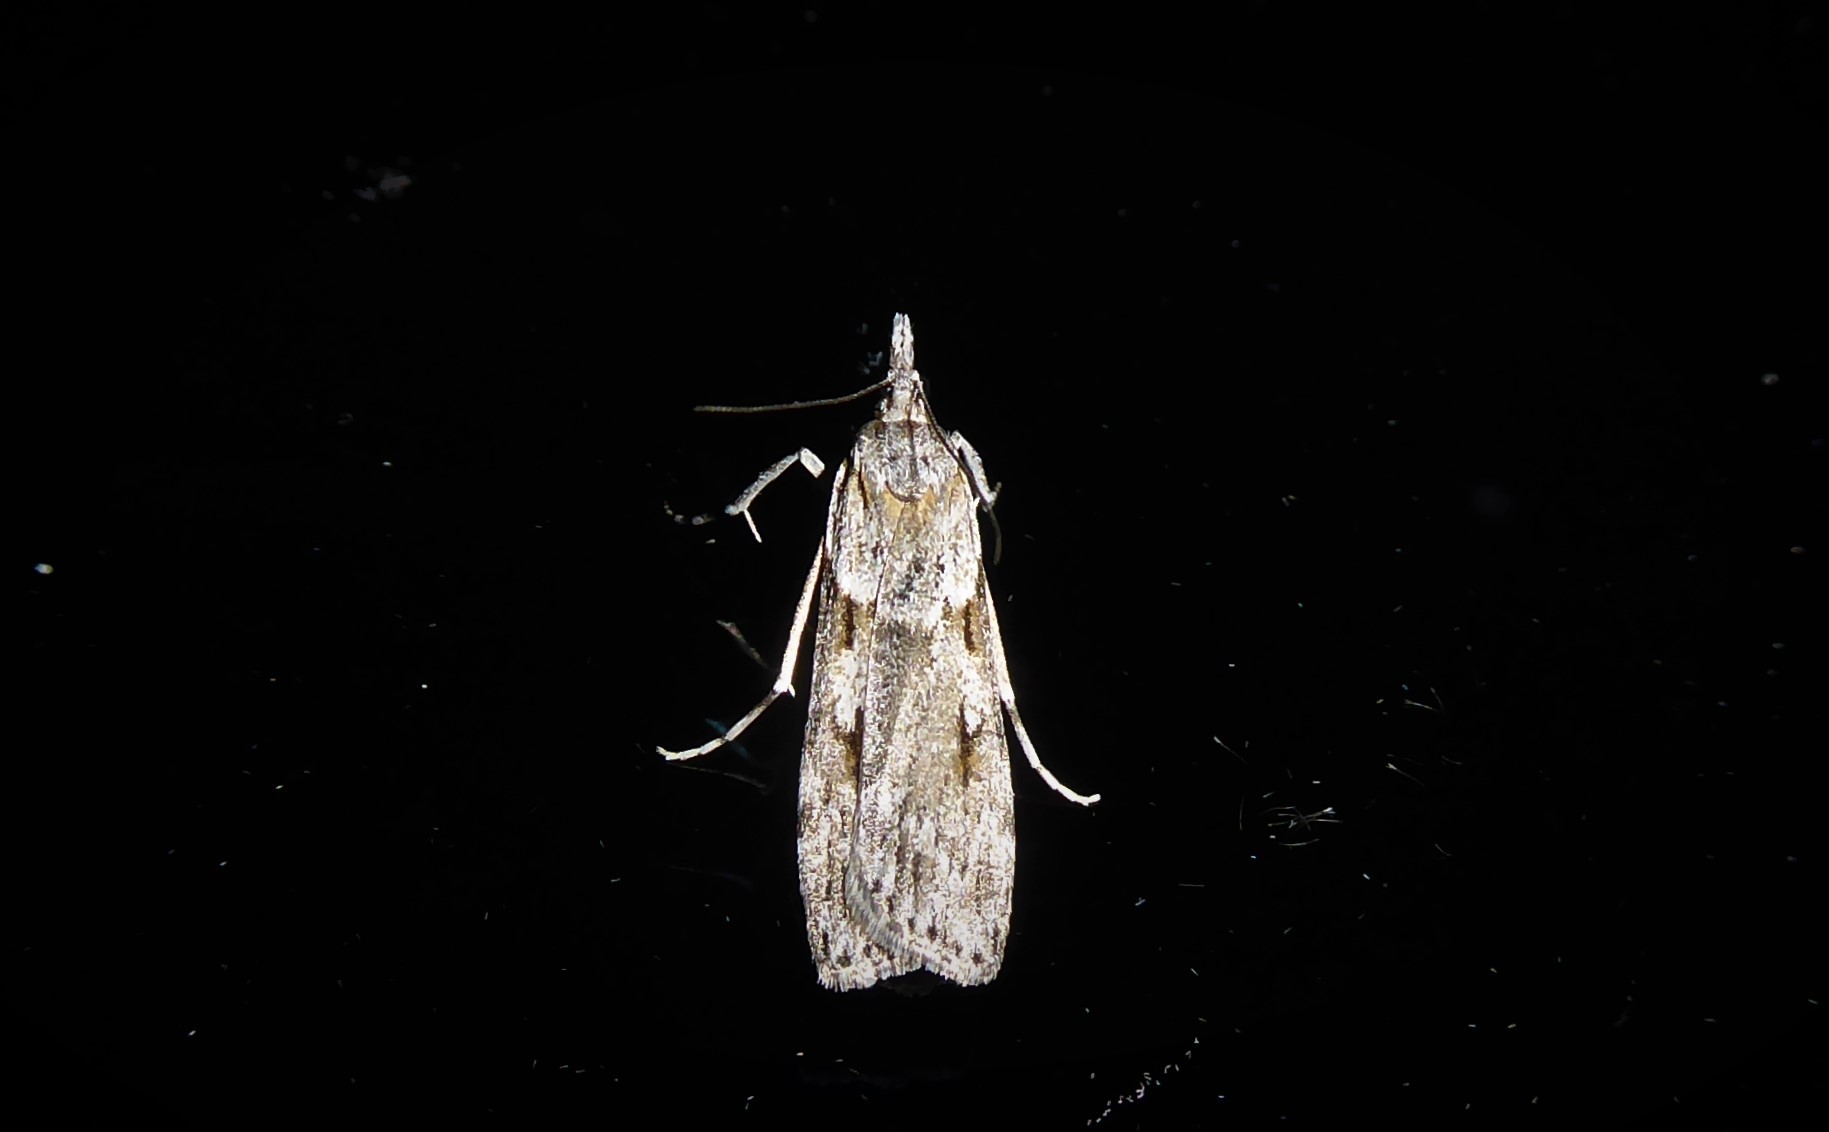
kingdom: Animalia
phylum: Arthropoda
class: Insecta
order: Lepidoptera
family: Crambidae
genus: Scoparia
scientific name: Scoparia halopis
